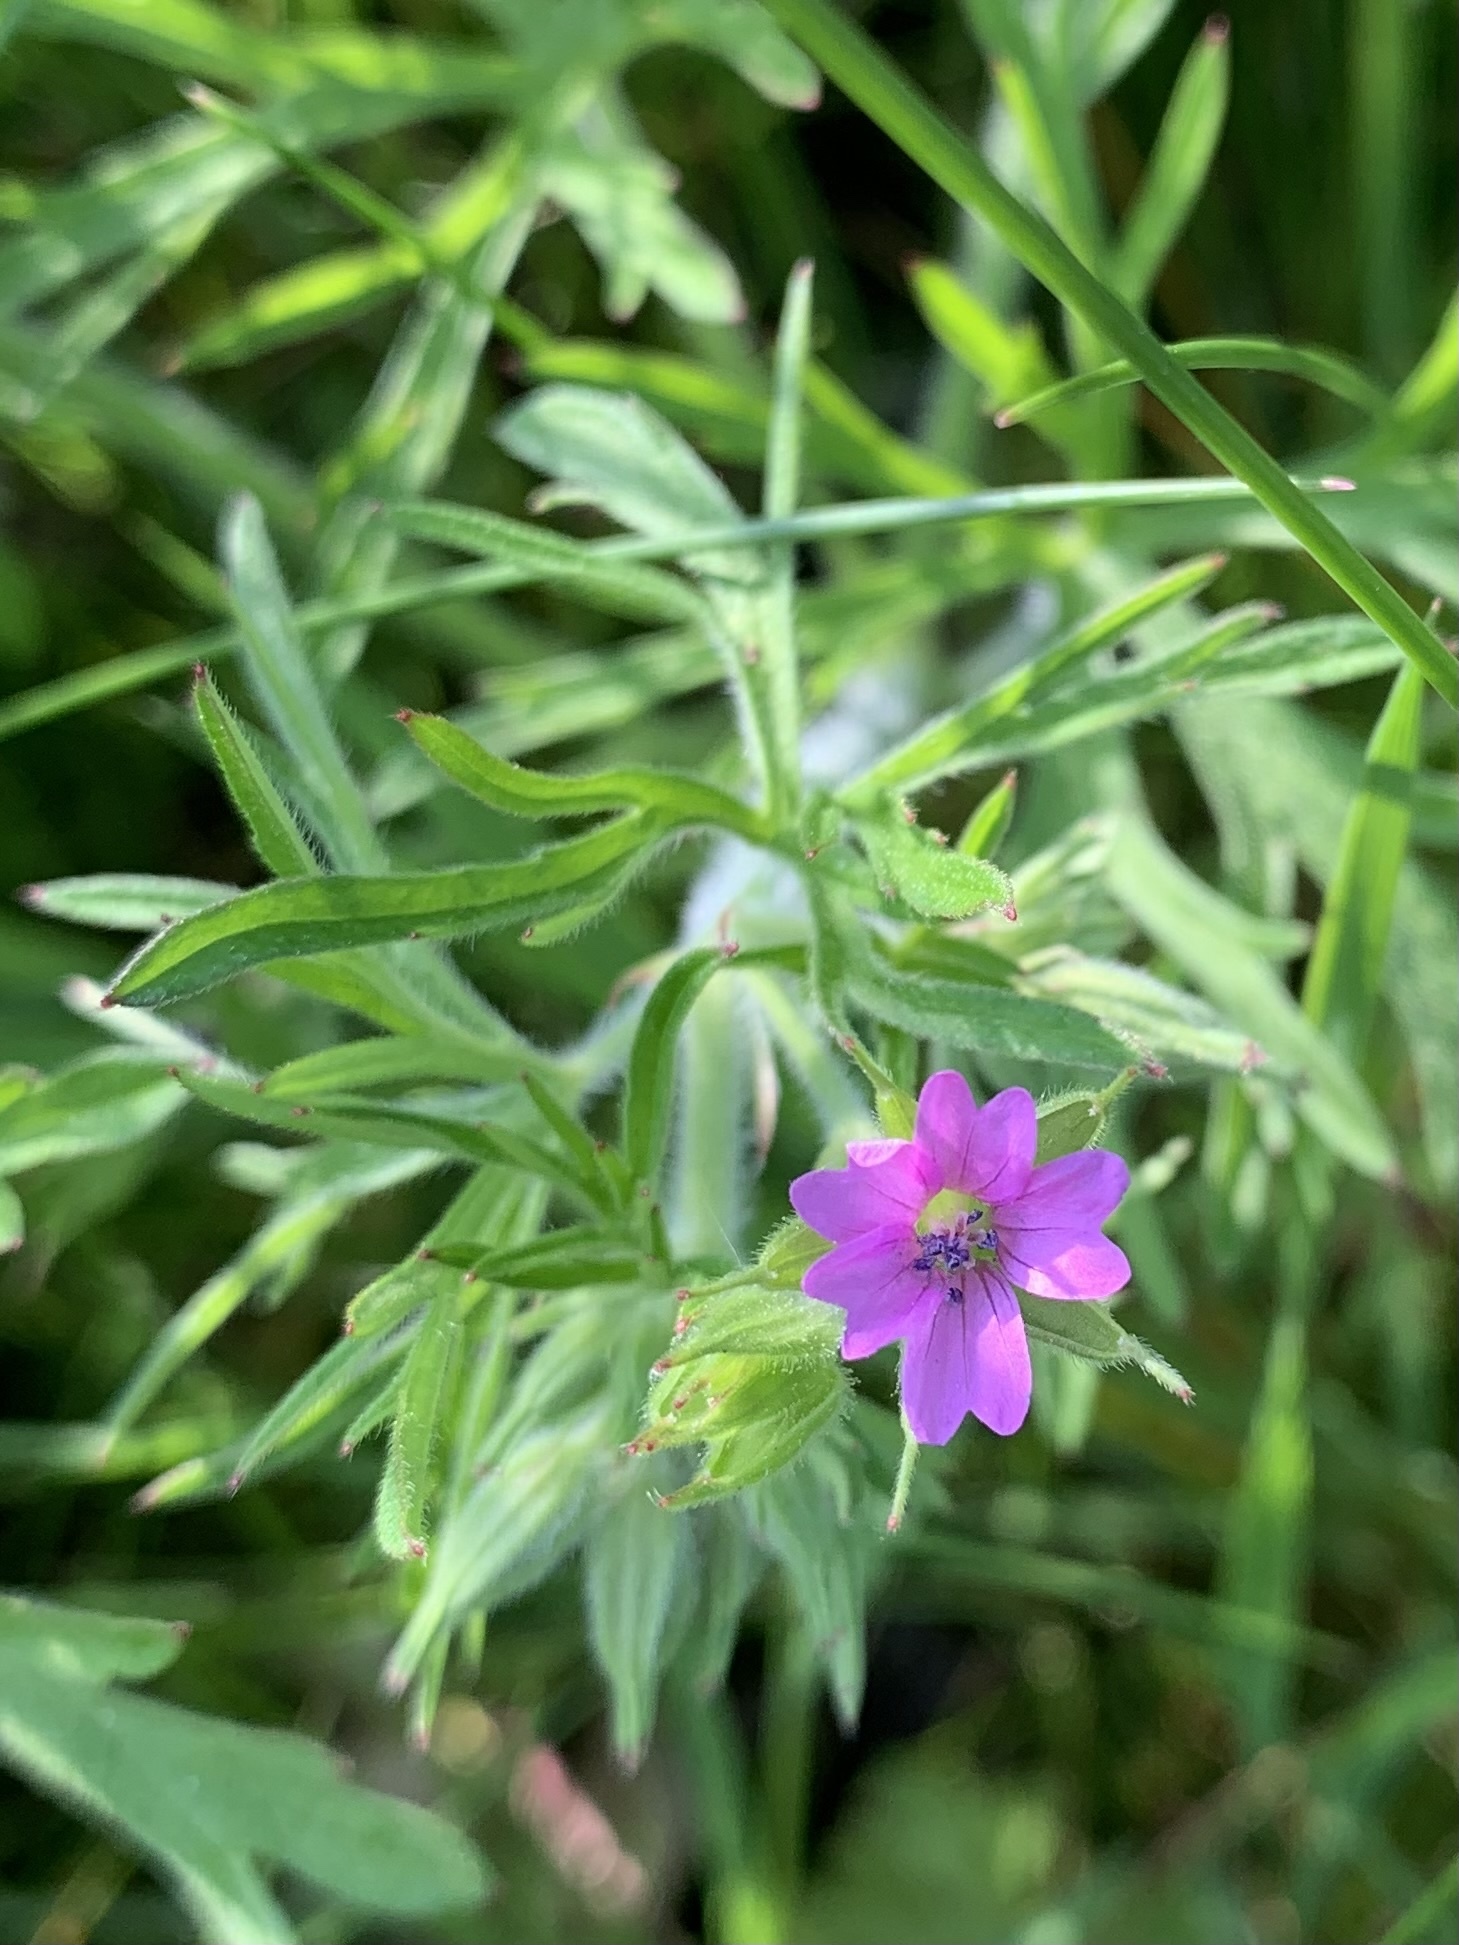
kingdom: Plantae
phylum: Tracheophyta
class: Magnoliopsida
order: Geraniales
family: Geraniaceae
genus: Geranium
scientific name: Geranium dissectum
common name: Cut-leaved crane's-bill
